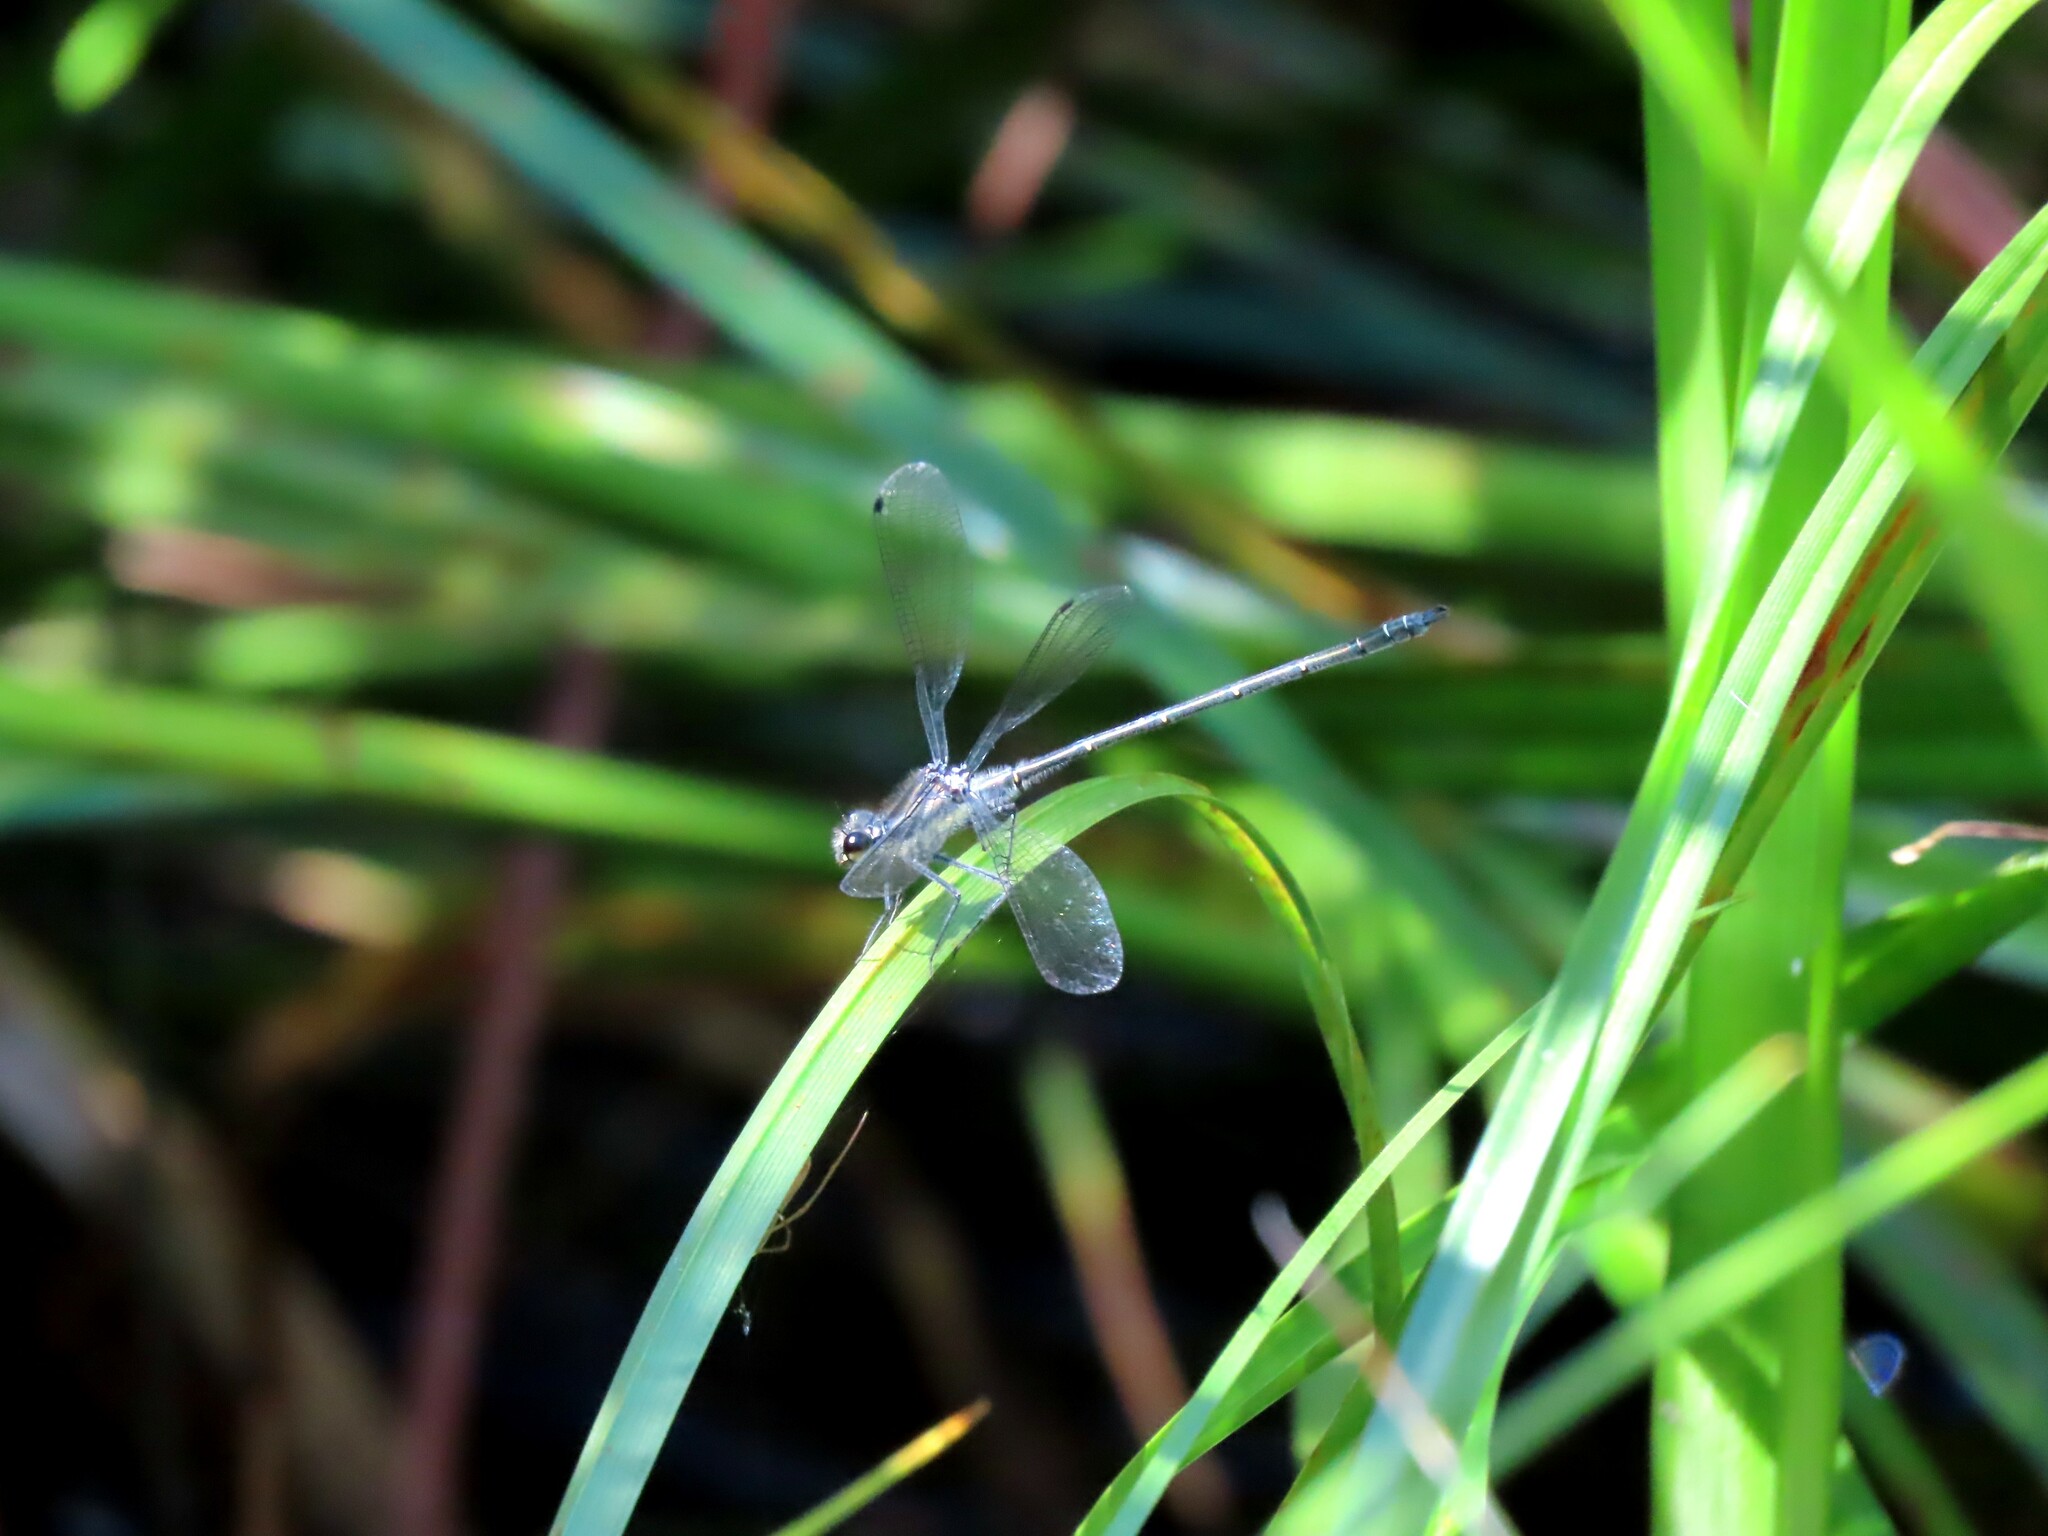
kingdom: Animalia
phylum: Arthropoda
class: Insecta
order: Odonata
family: Argiolestidae
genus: Austroargiolestes
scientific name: Austroargiolestes icteromelas
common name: Common flatwing
